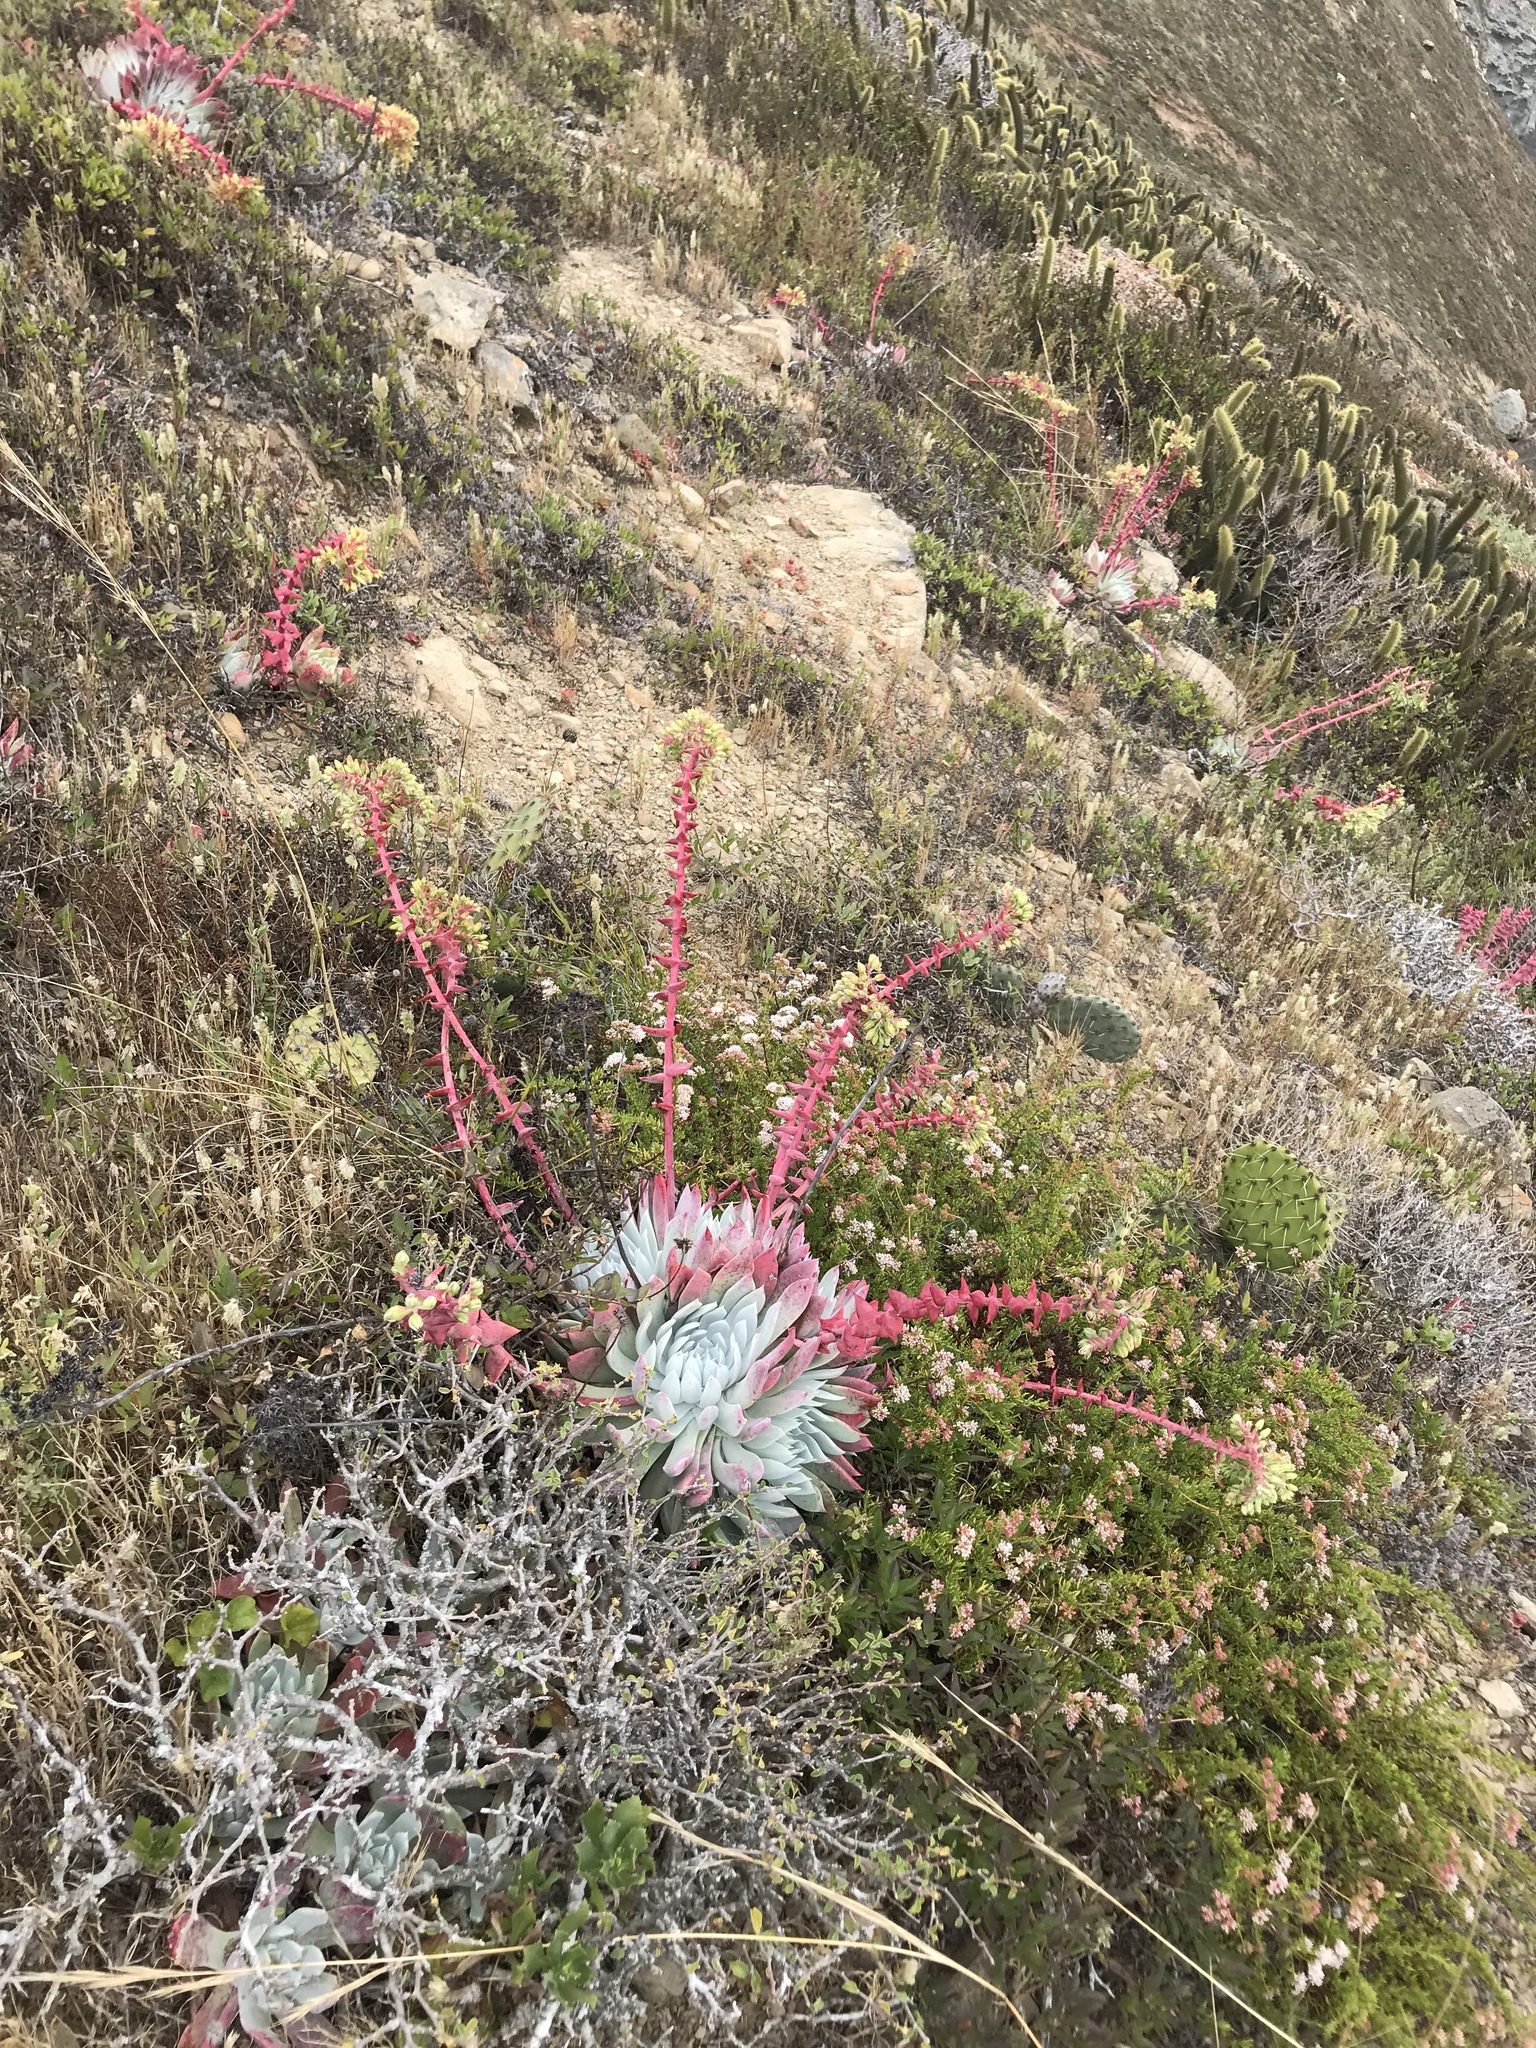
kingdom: Plantae
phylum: Tracheophyta
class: Magnoliopsida
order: Saxifragales
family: Crassulaceae
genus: Dudleya
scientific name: Dudleya candida
